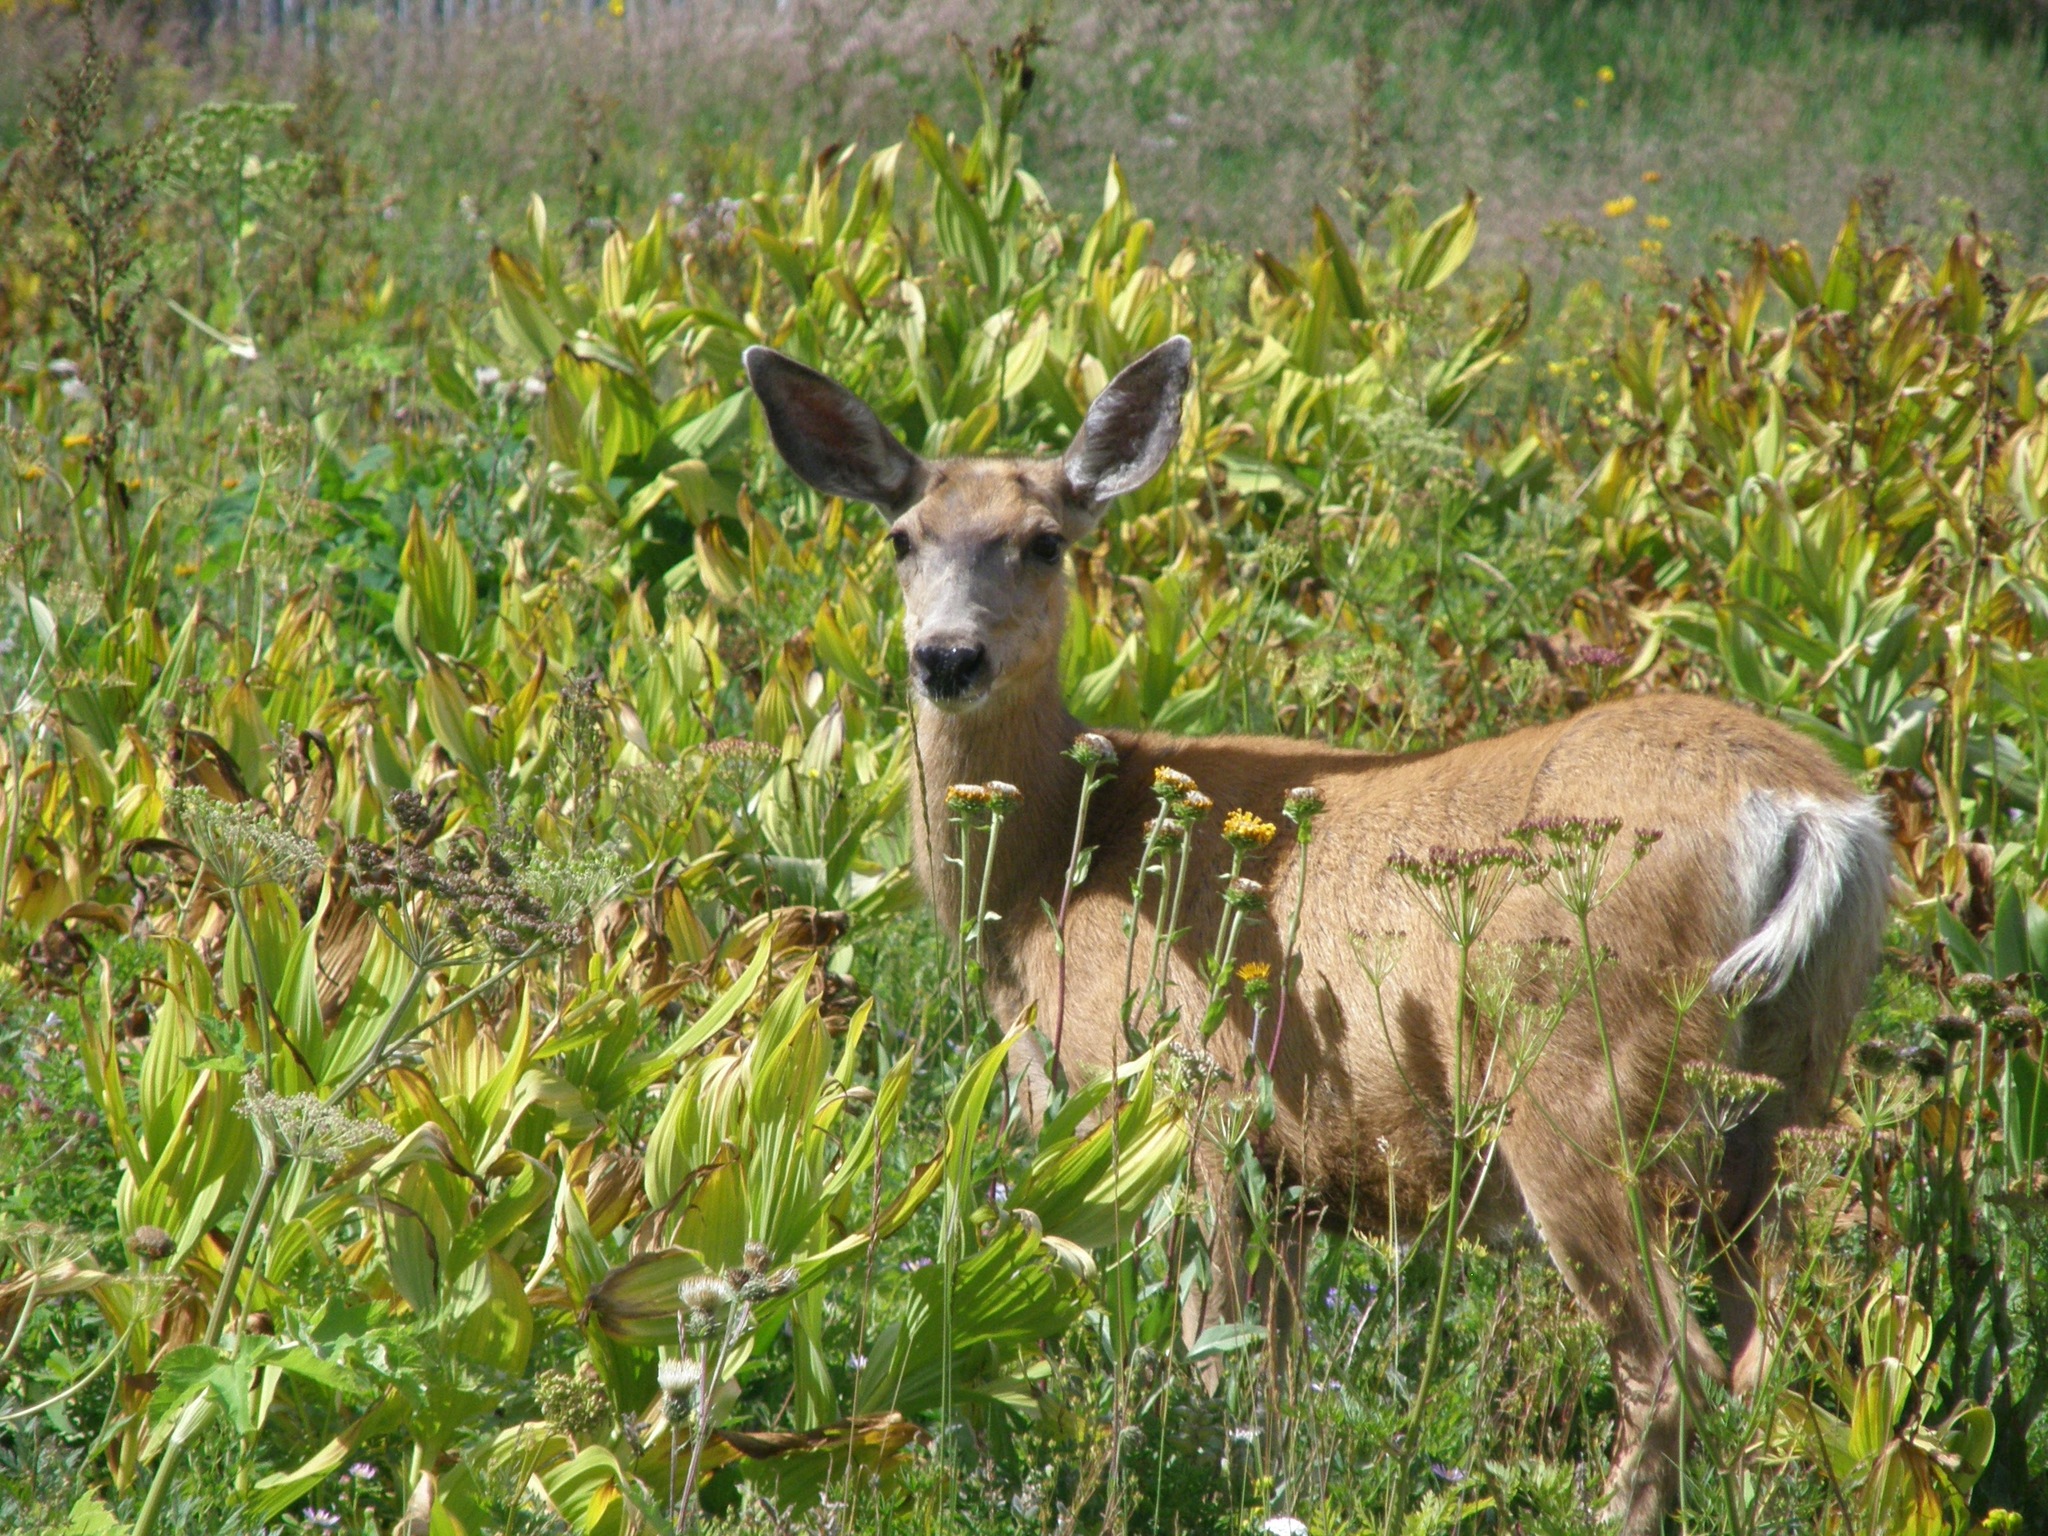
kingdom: Animalia
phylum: Chordata
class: Mammalia
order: Artiodactyla
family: Cervidae
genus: Odocoileus
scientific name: Odocoileus hemionus
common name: Mule deer
